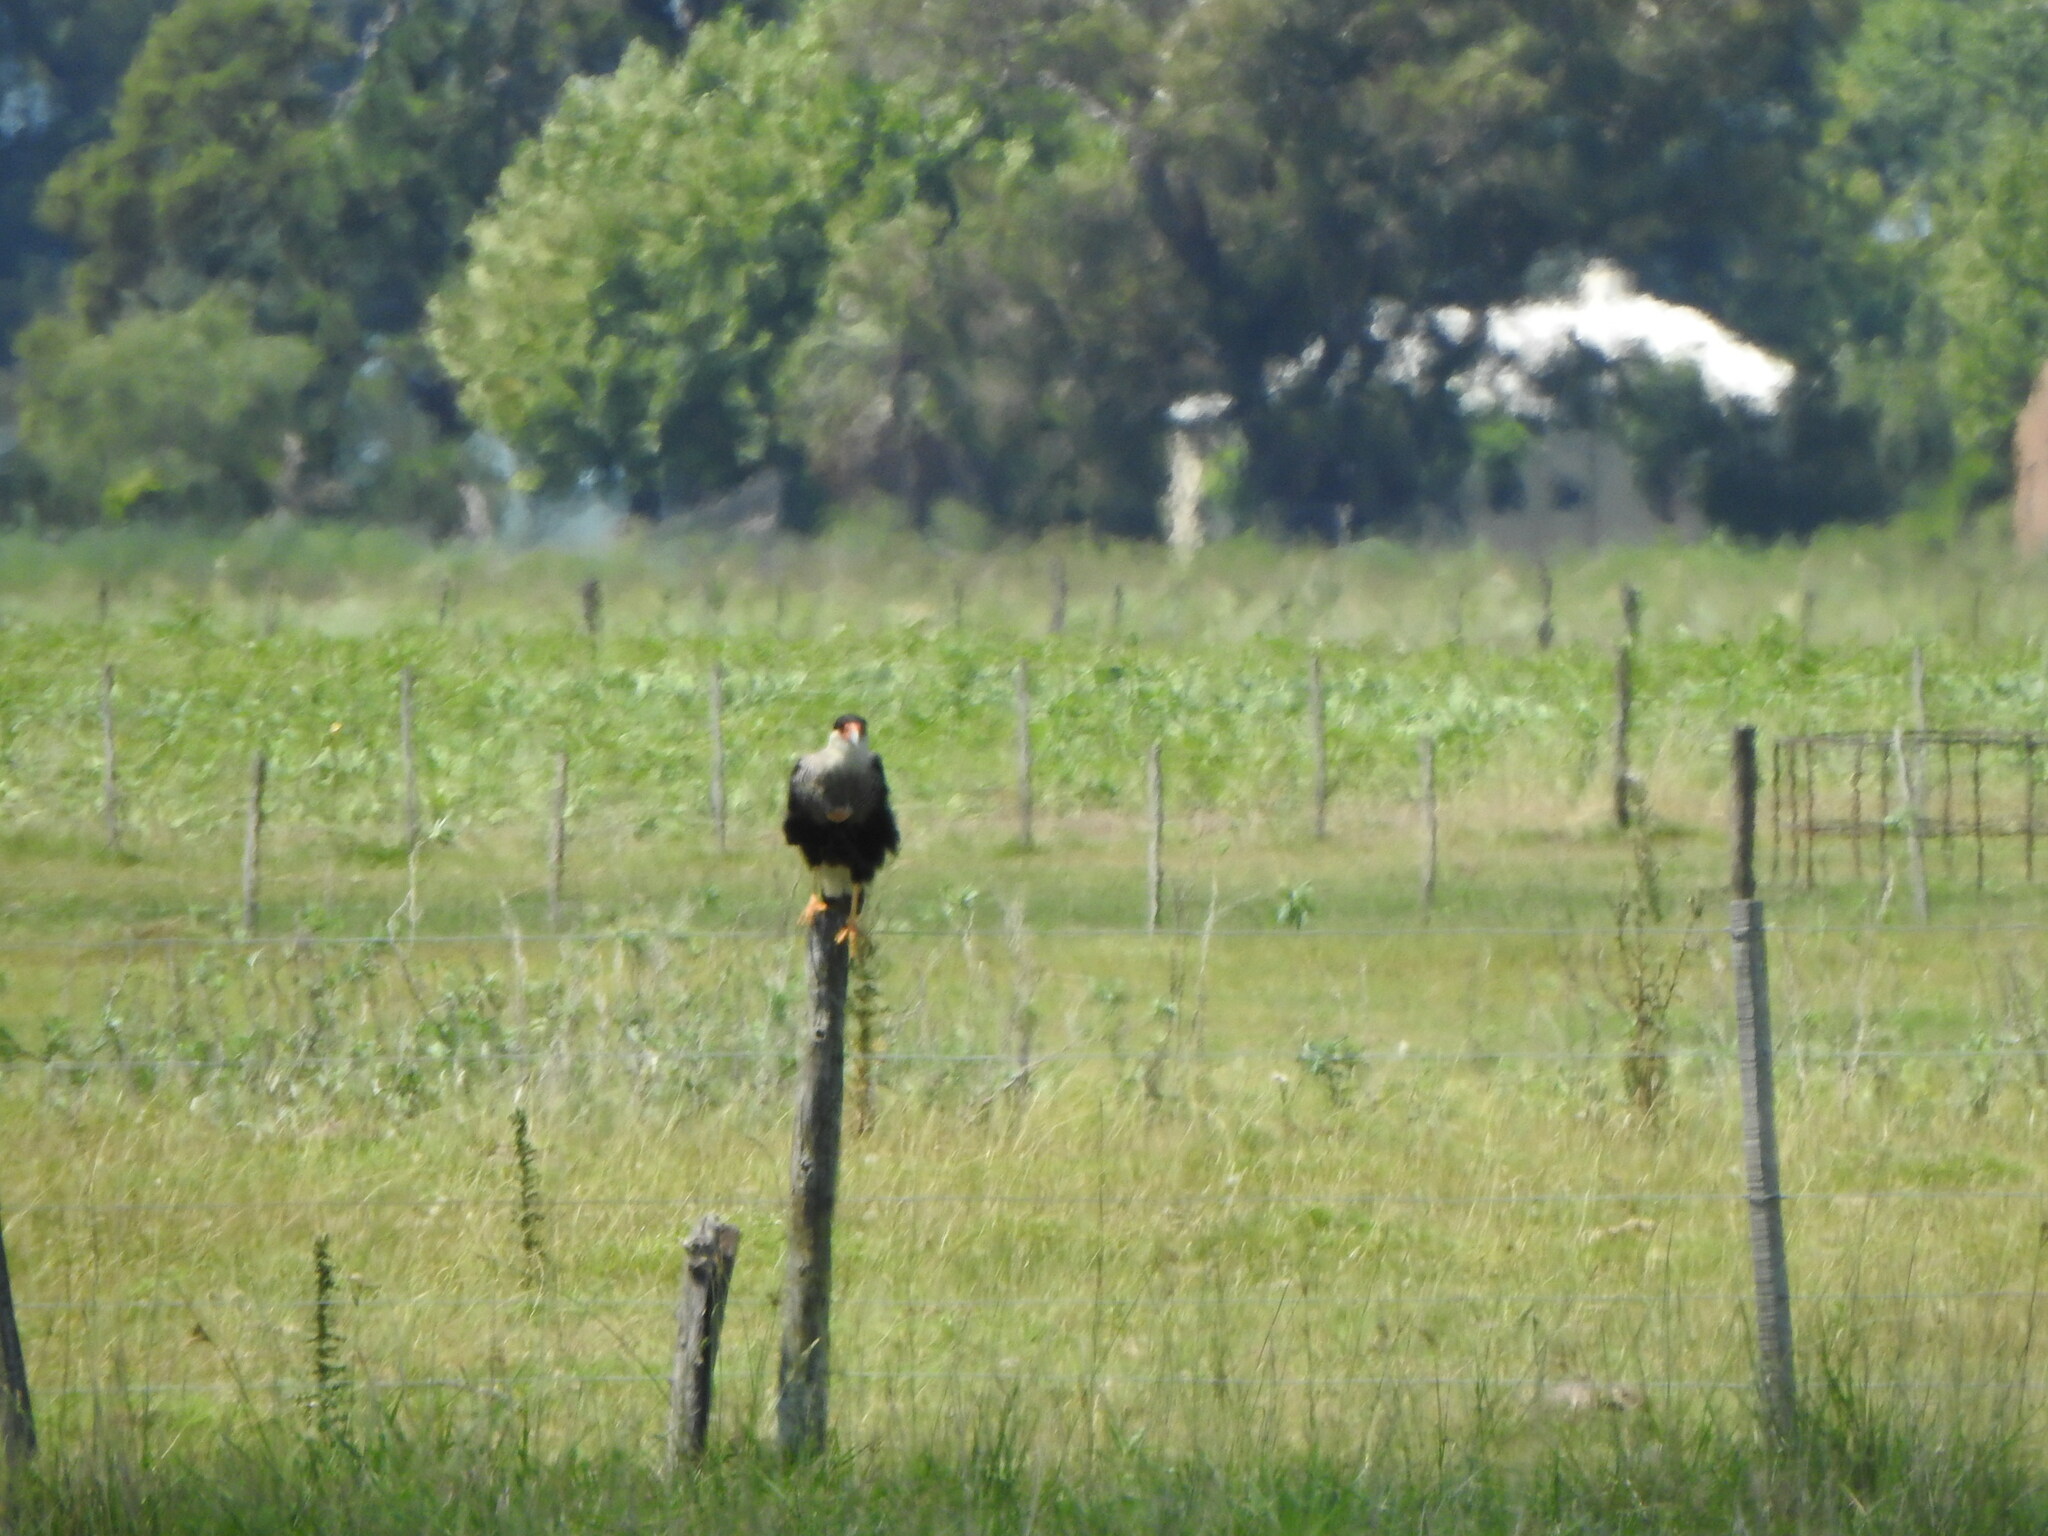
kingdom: Animalia
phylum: Chordata
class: Aves
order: Falconiformes
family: Falconidae
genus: Caracara
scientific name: Caracara plancus
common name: Southern caracara
